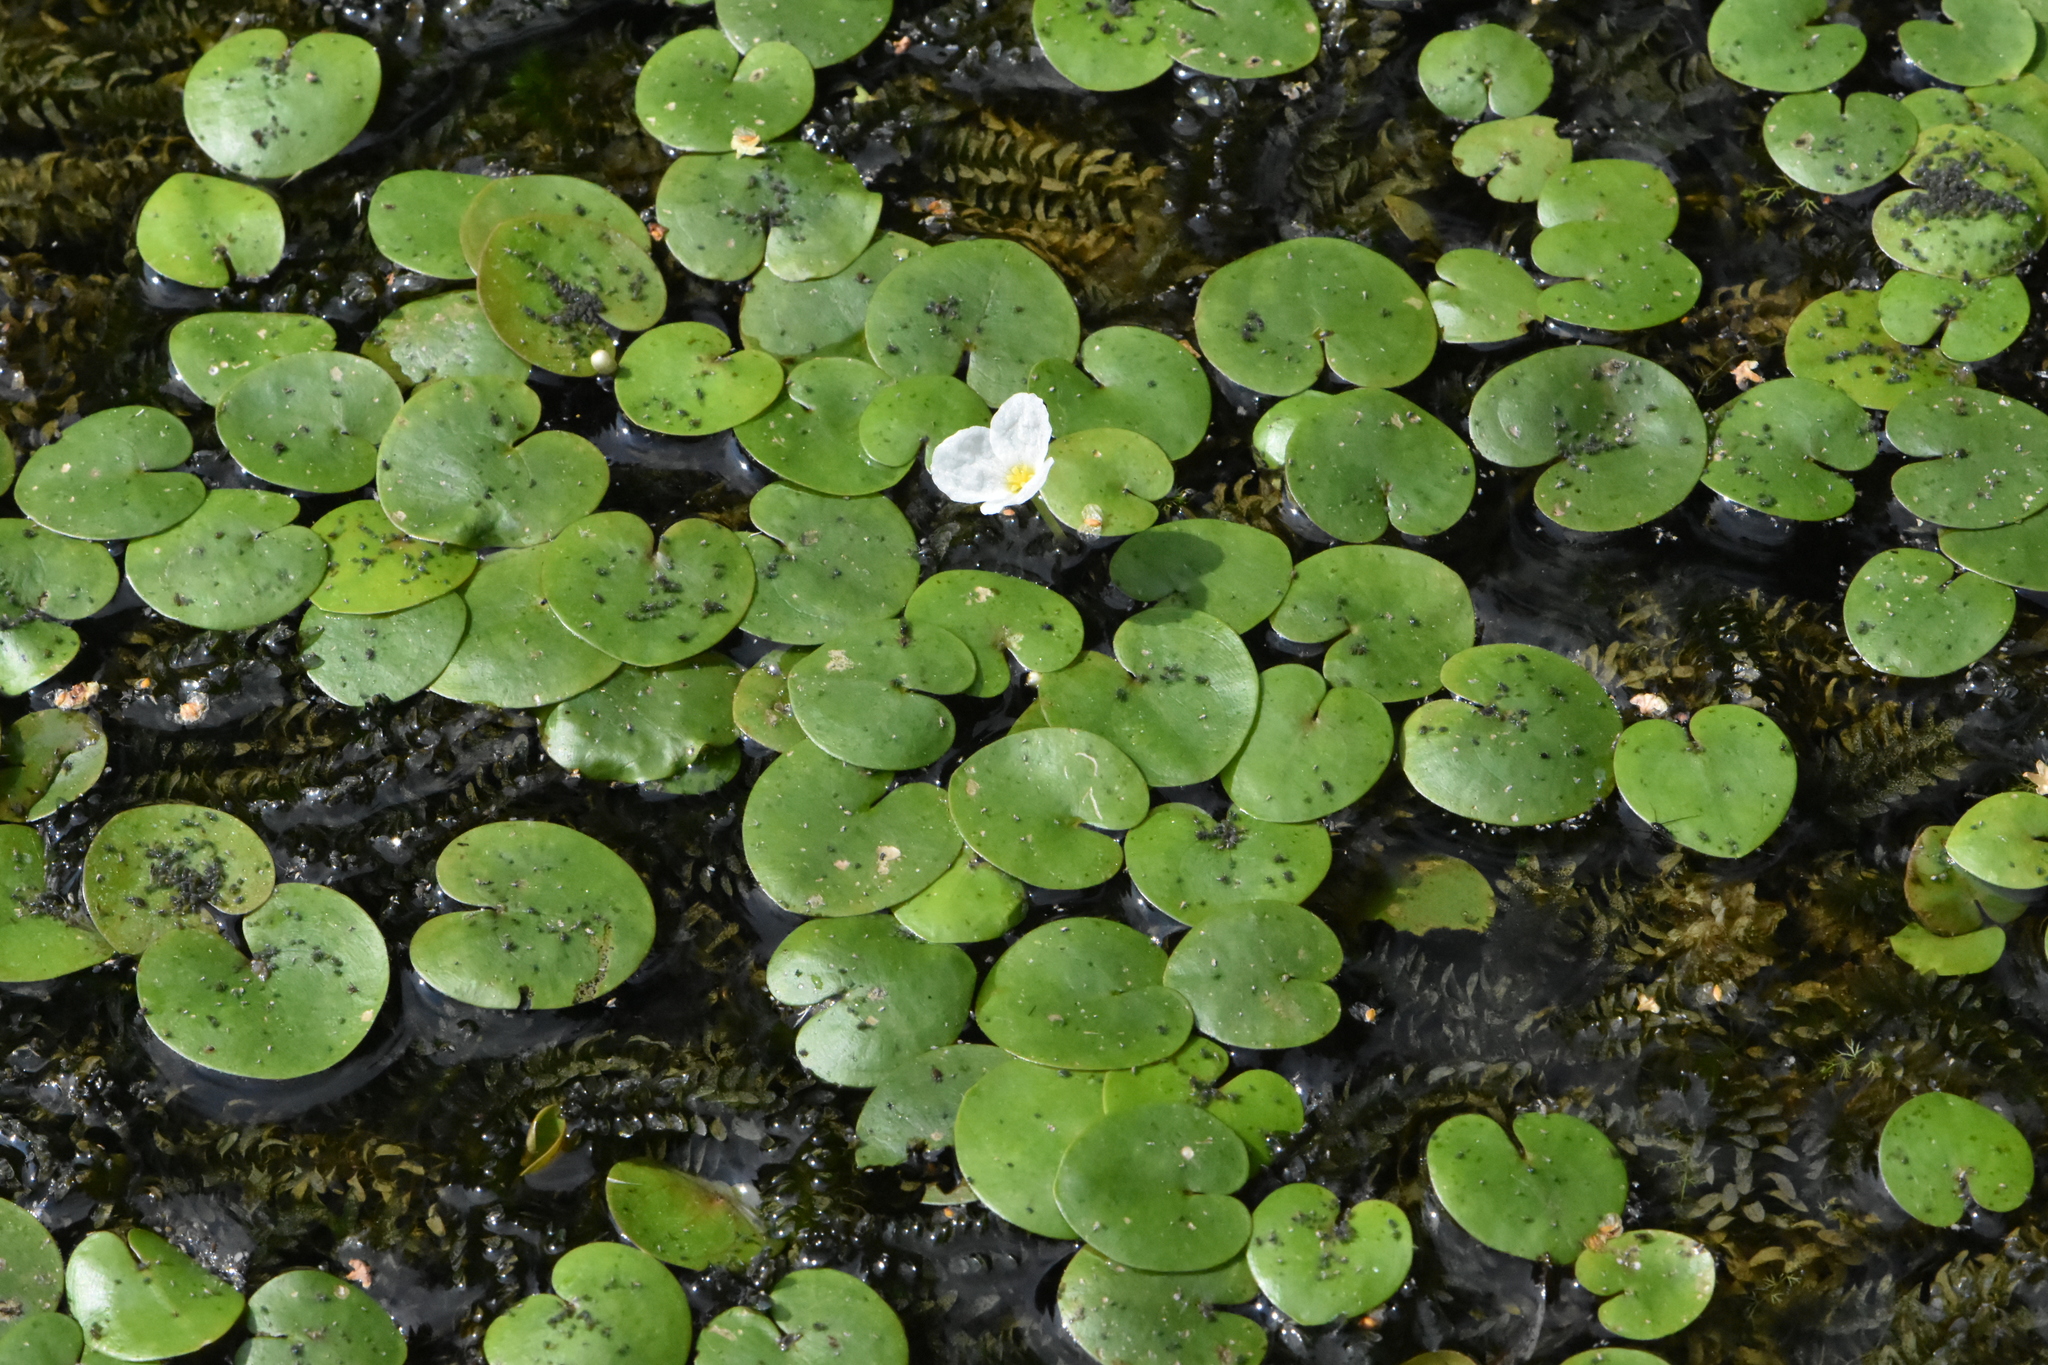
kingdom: Plantae
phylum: Tracheophyta
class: Liliopsida
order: Alismatales
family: Hydrocharitaceae
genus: Hydrocharis
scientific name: Hydrocharis morsus-ranae
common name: Frogbit
